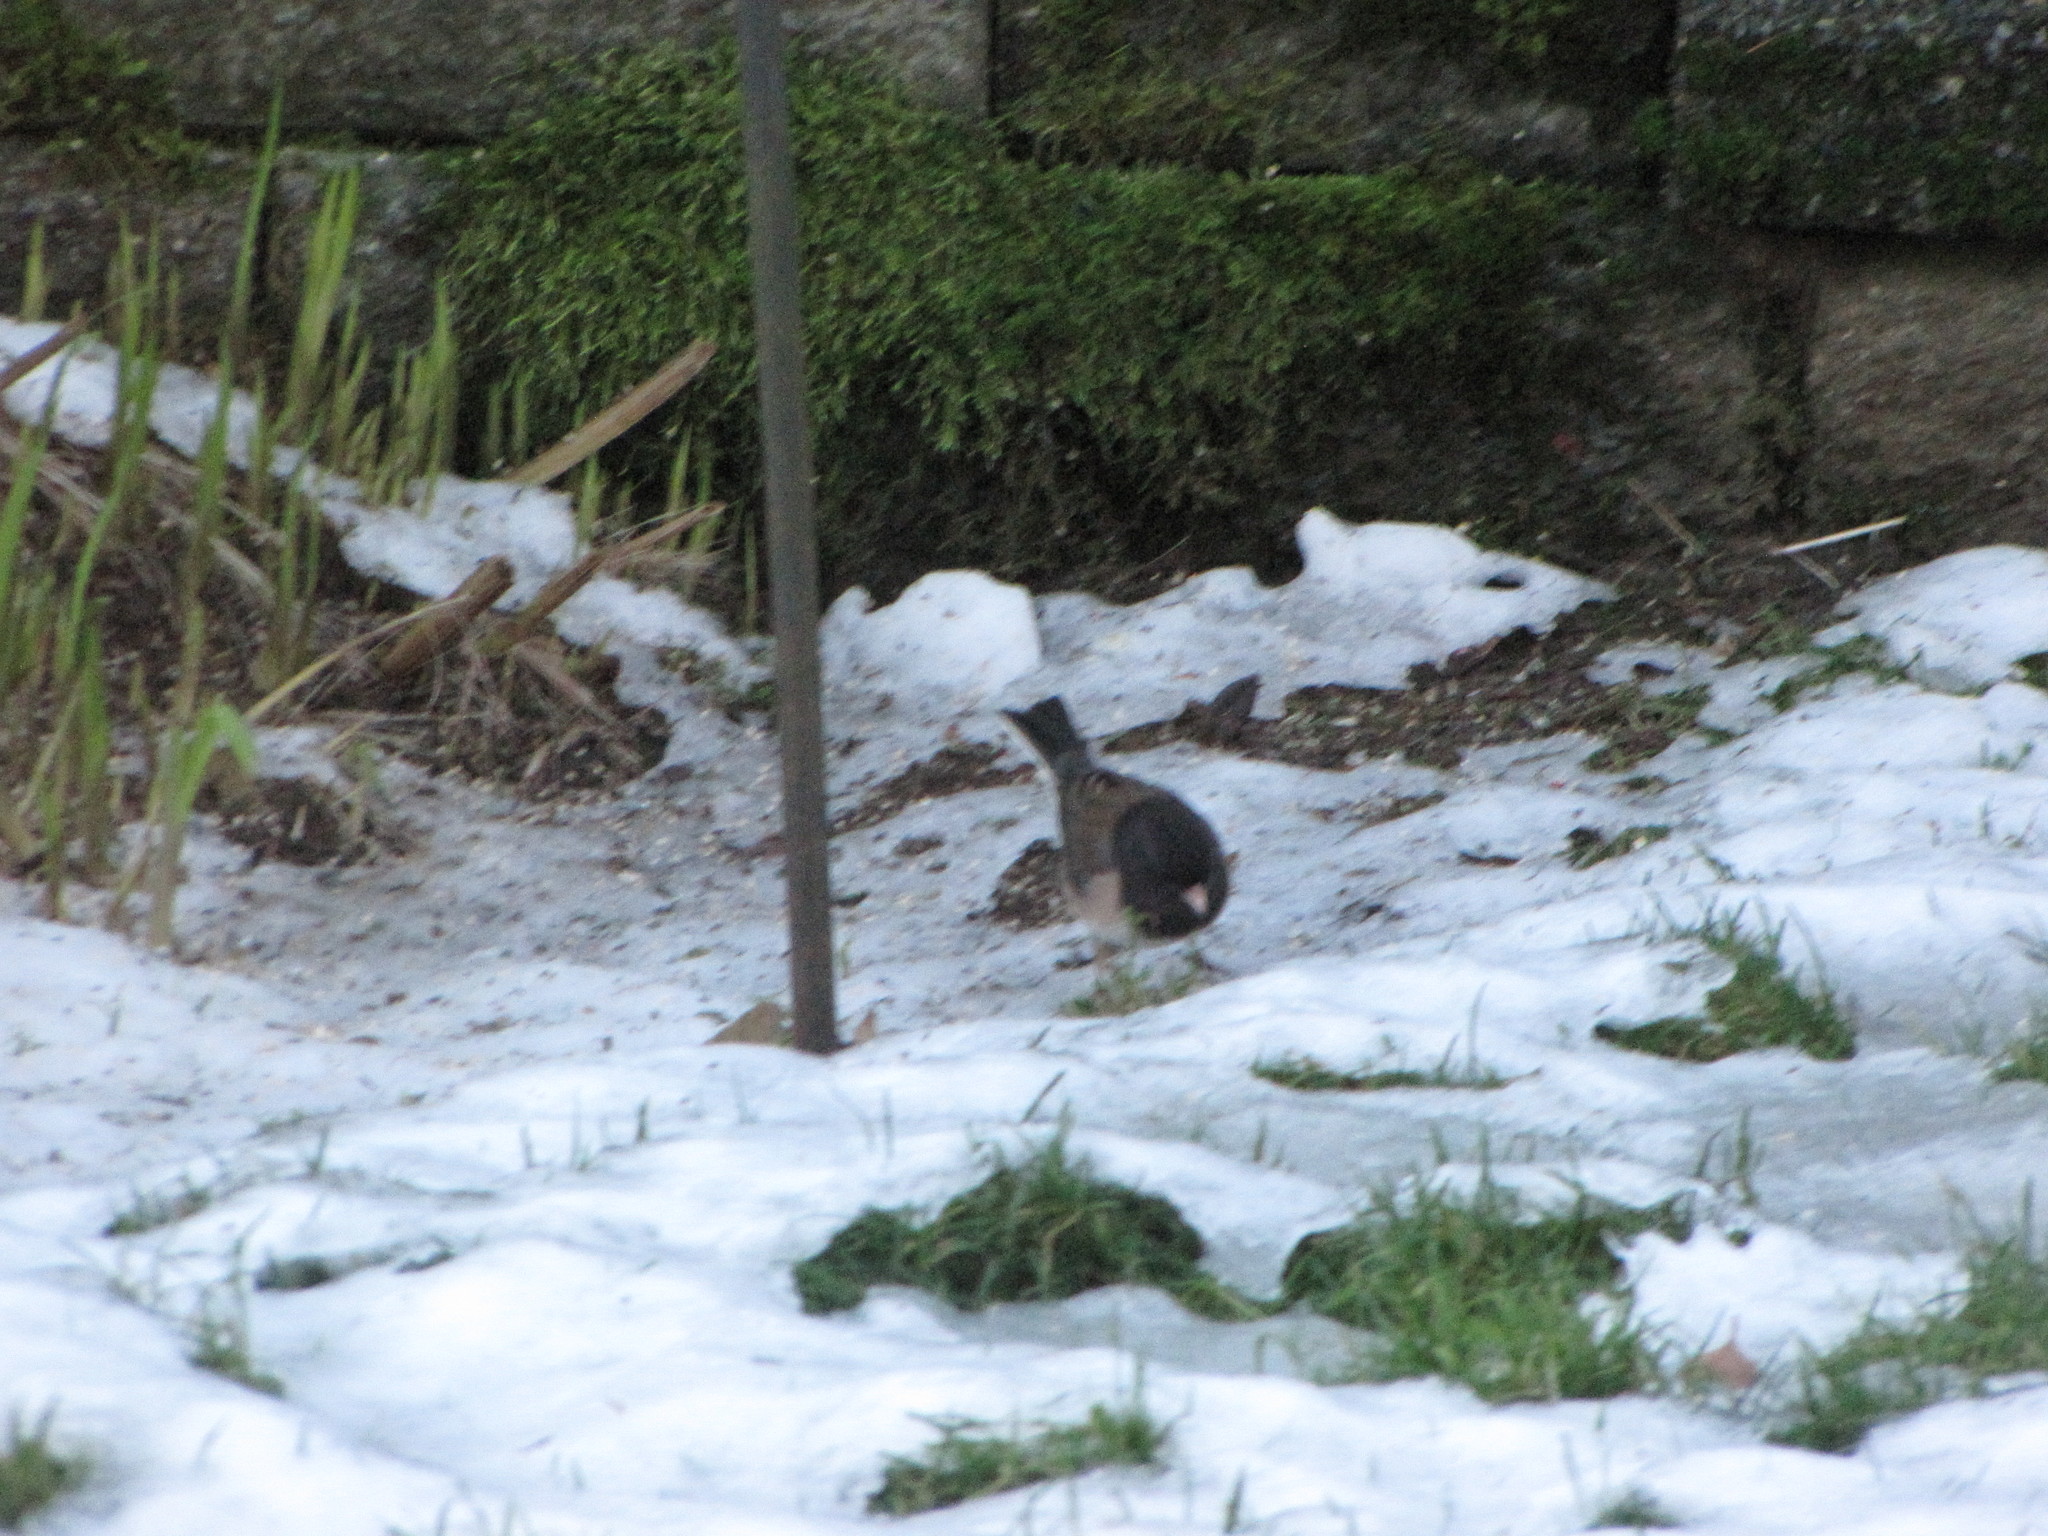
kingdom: Animalia
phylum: Chordata
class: Aves
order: Passeriformes
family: Passerellidae
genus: Junco
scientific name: Junco hyemalis
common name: Dark-eyed junco
